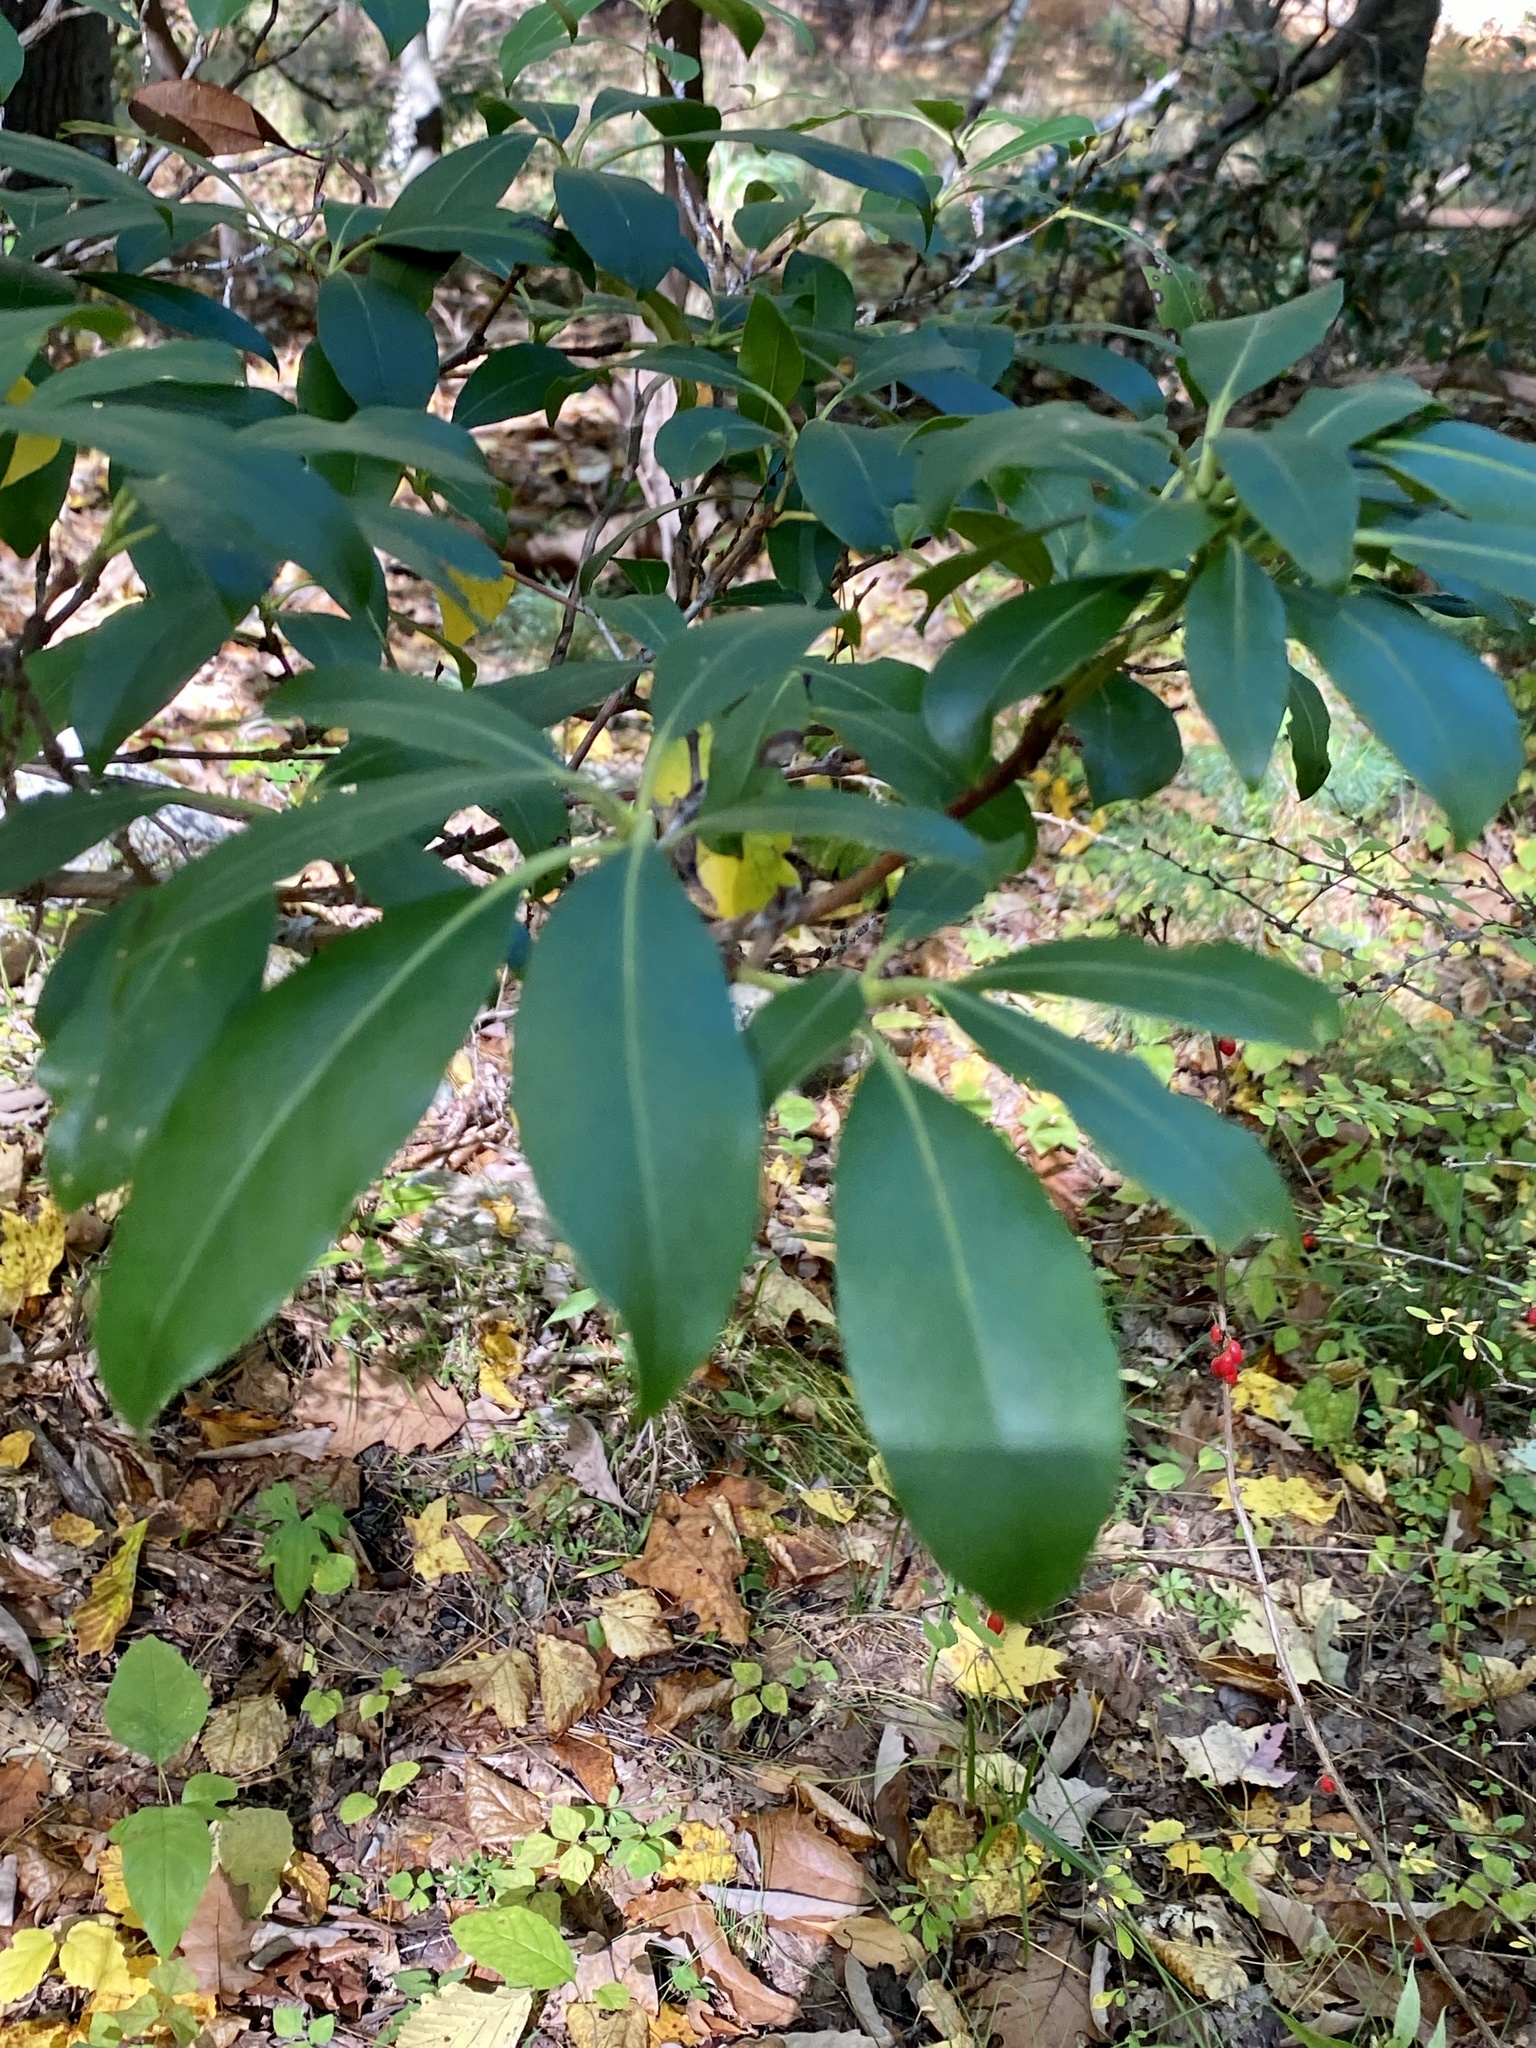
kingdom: Plantae
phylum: Tracheophyta
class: Magnoliopsida
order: Ericales
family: Ericaceae
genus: Kalmia
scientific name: Kalmia latifolia
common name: Mountain-laurel
